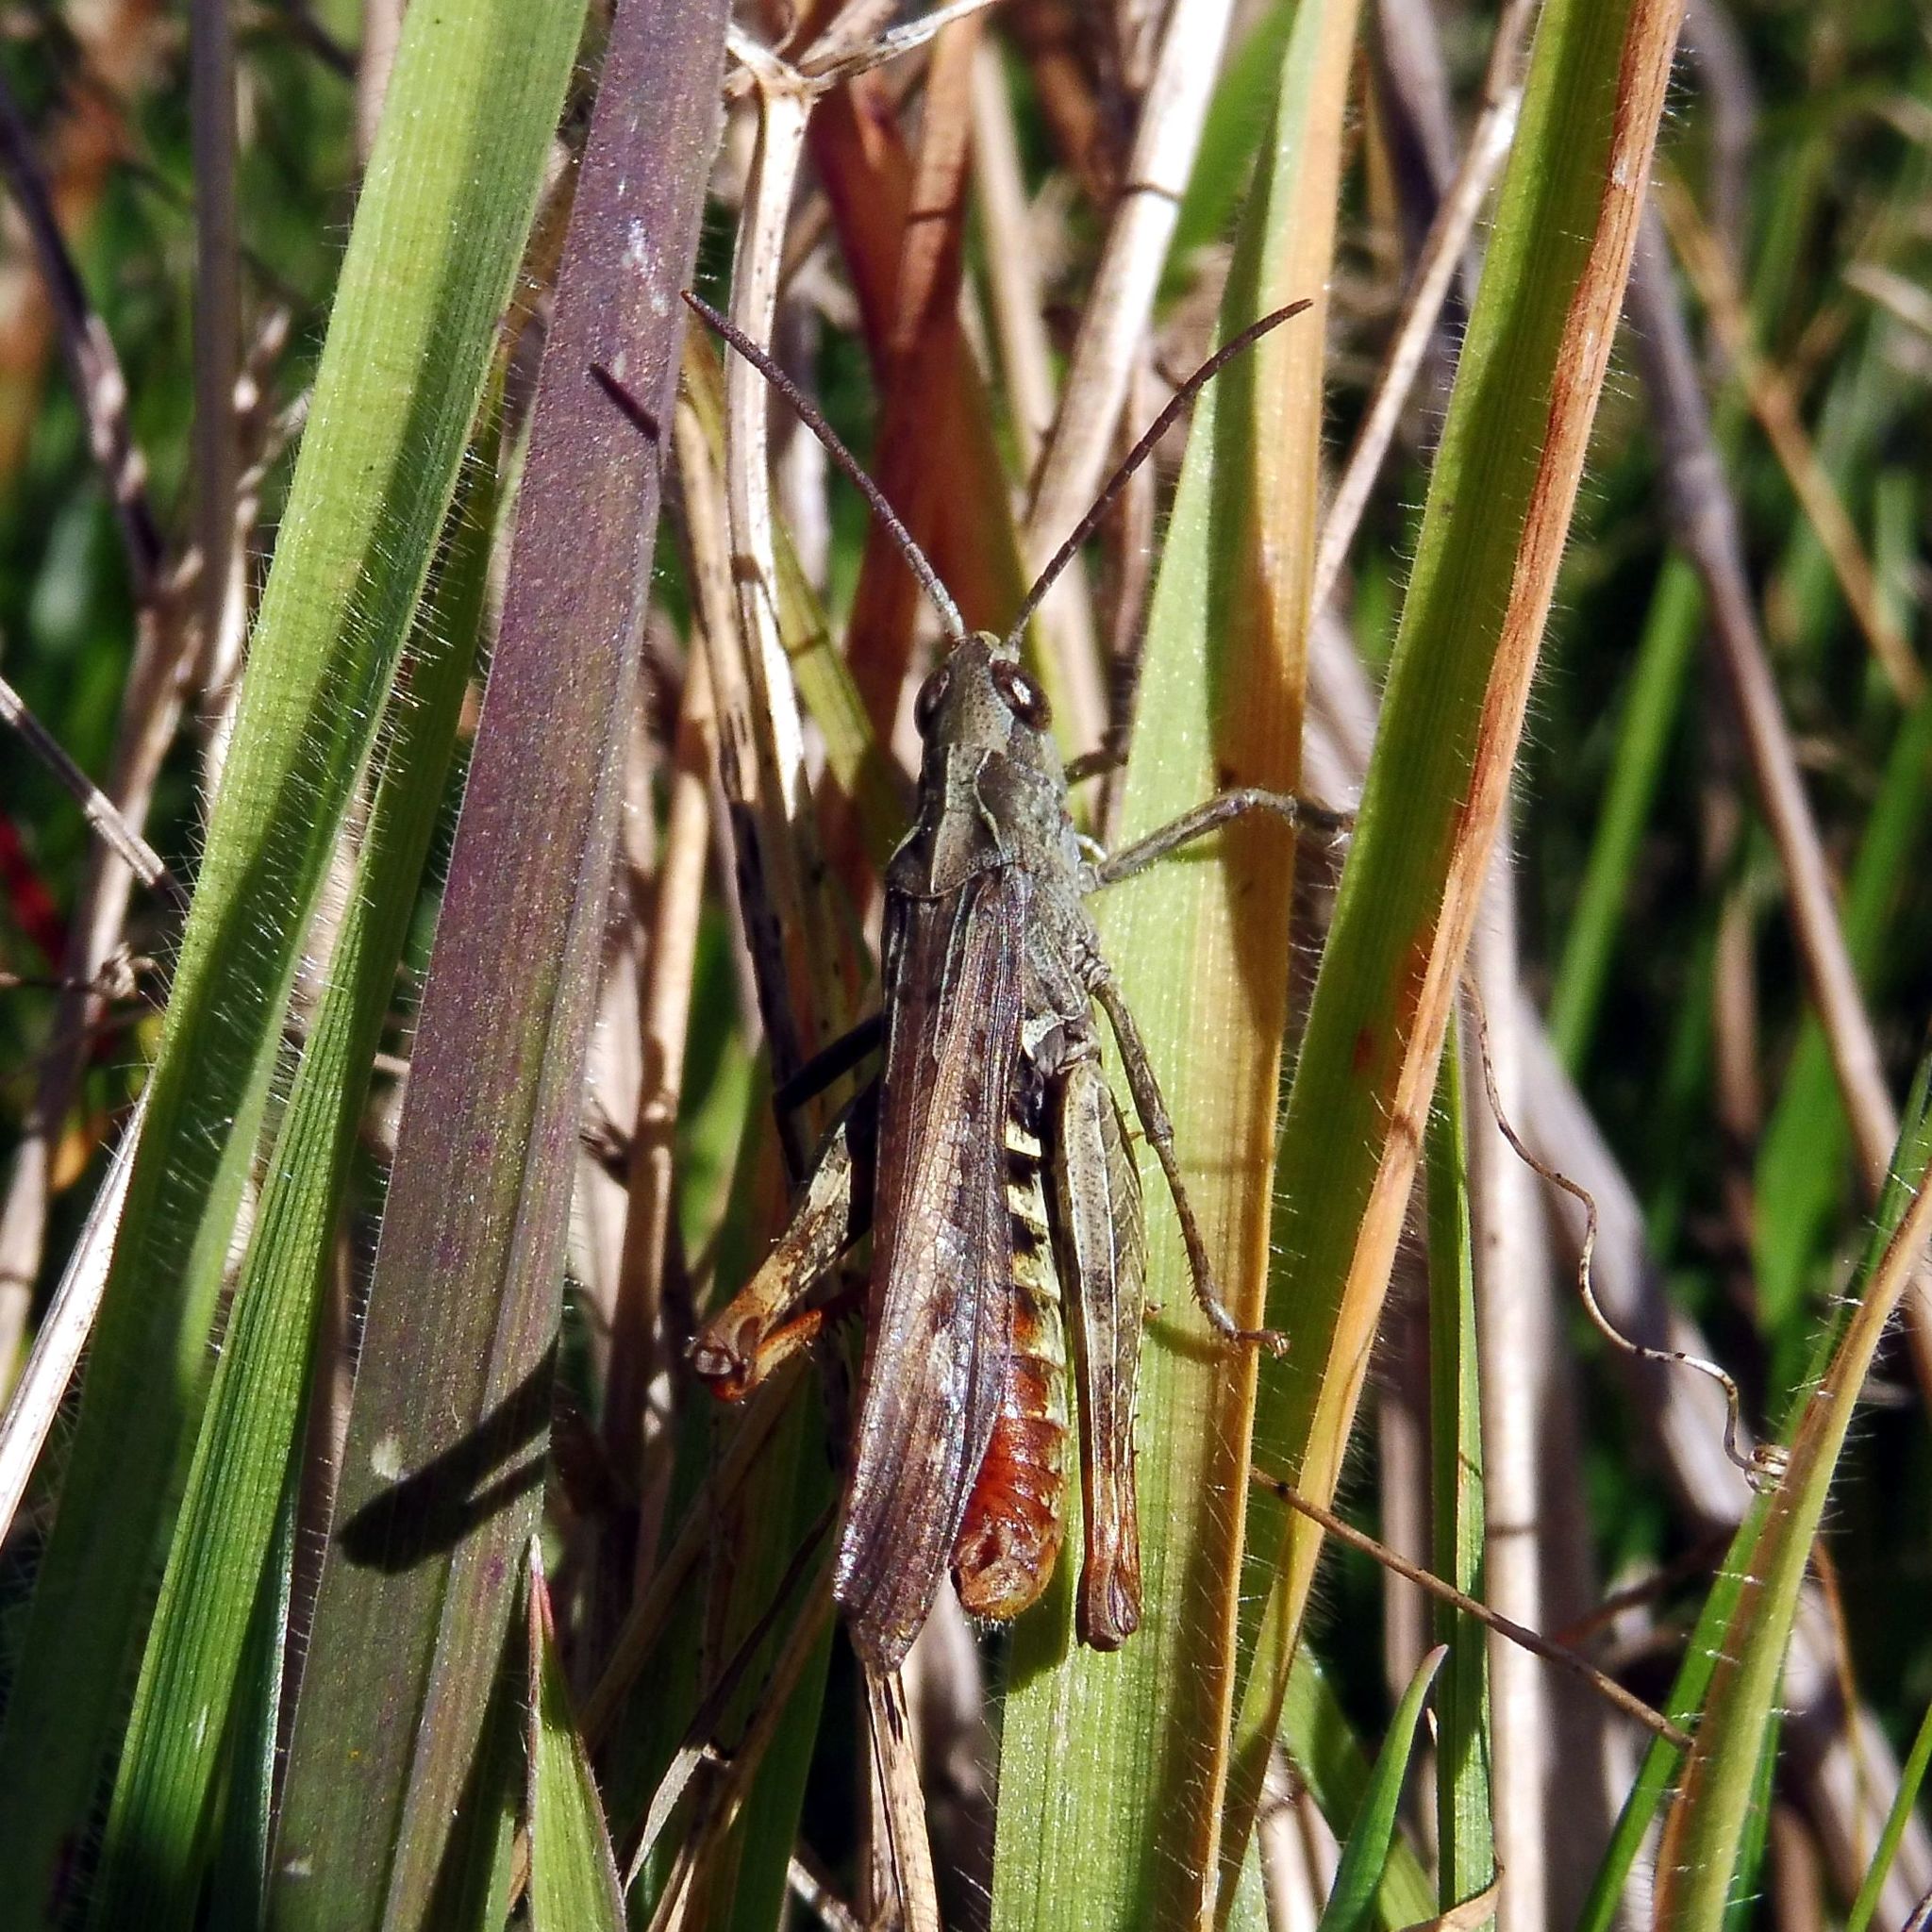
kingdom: Animalia
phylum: Arthropoda
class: Insecta
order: Orthoptera
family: Acrididae
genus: Chorthippus
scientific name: Chorthippus brunneus
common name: Field grasshopper
